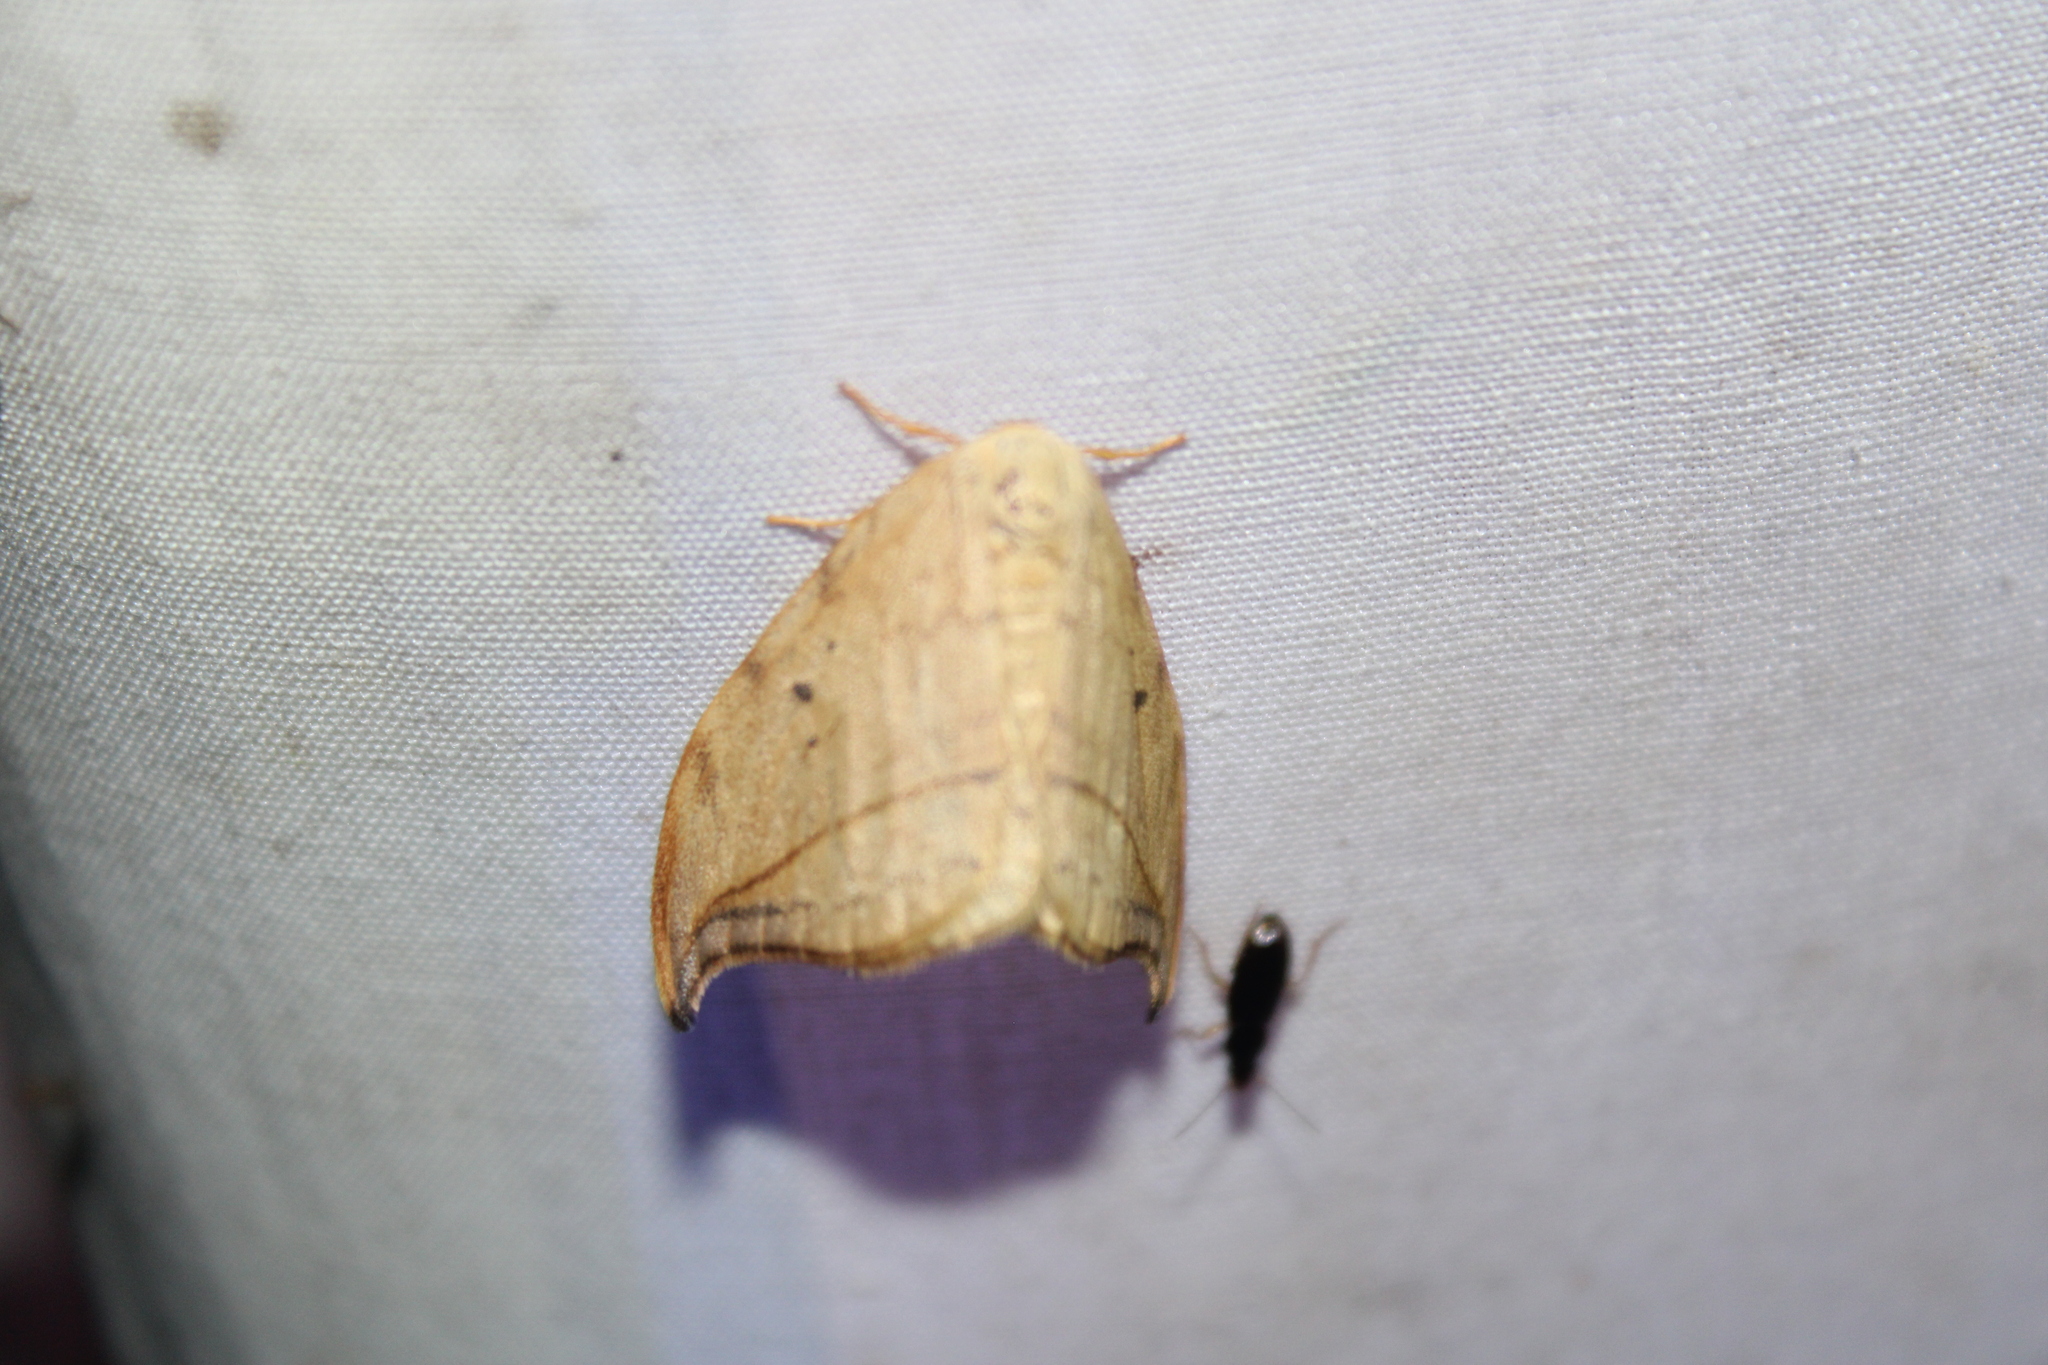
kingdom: Animalia
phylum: Arthropoda
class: Insecta
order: Lepidoptera
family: Drepanidae
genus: Drepana
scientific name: Drepana arcuata
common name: Arched hooktip moth
